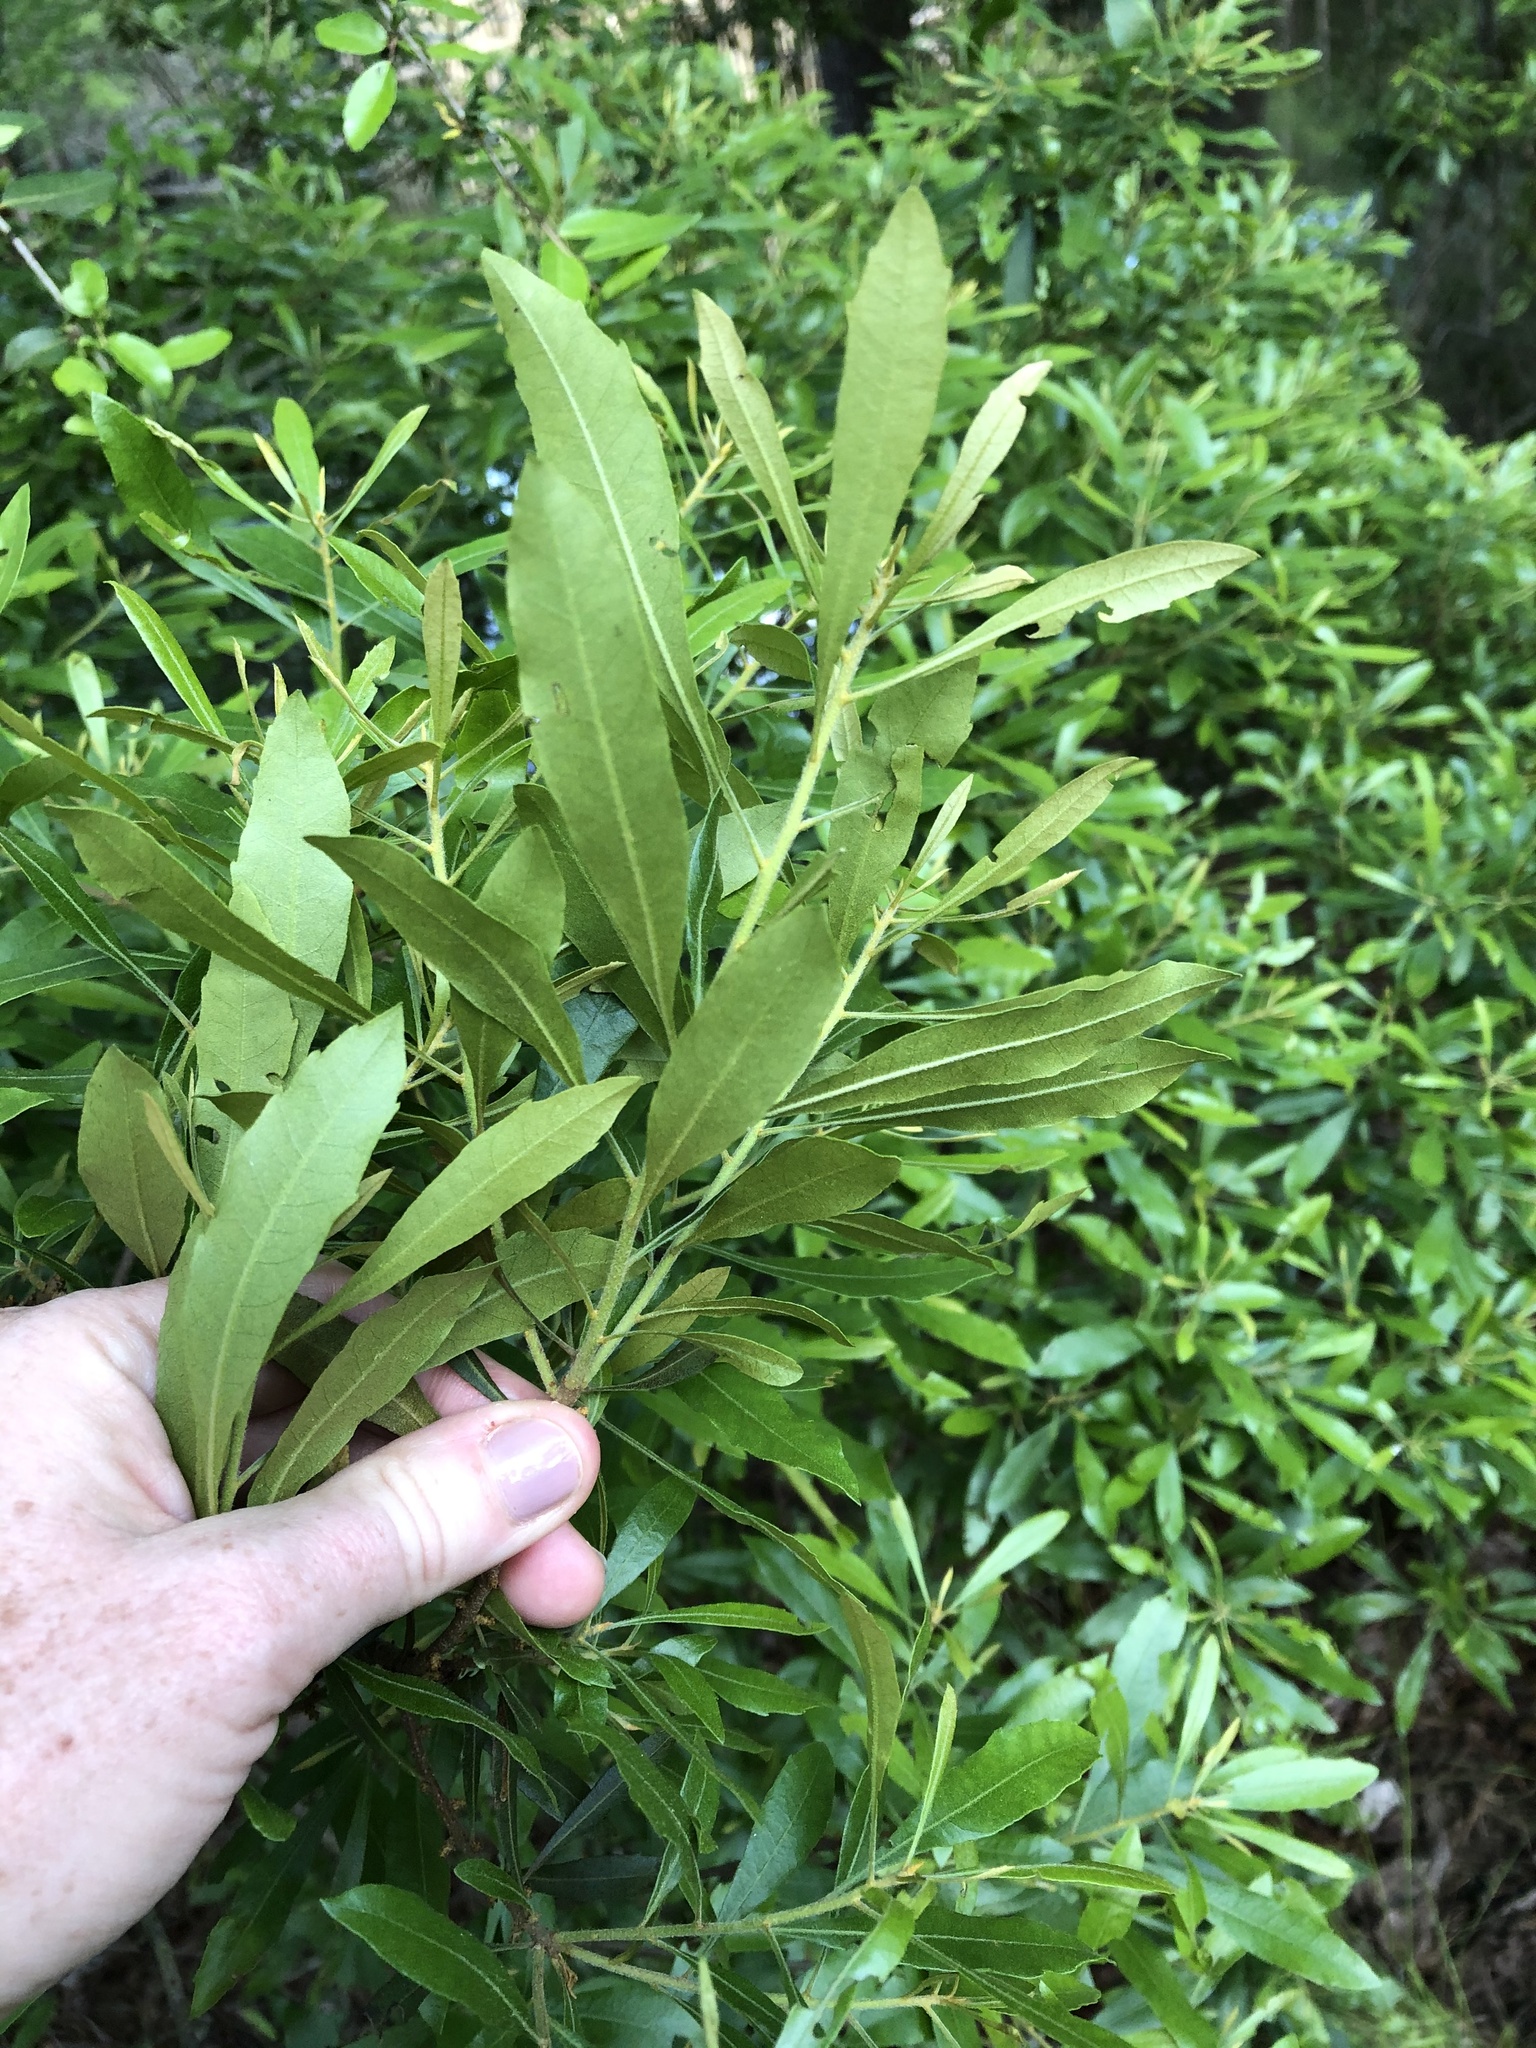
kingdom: Plantae
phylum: Tracheophyta
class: Magnoliopsida
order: Fagales
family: Myricaceae
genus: Morella
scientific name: Morella cerifera
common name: Wax myrtle
